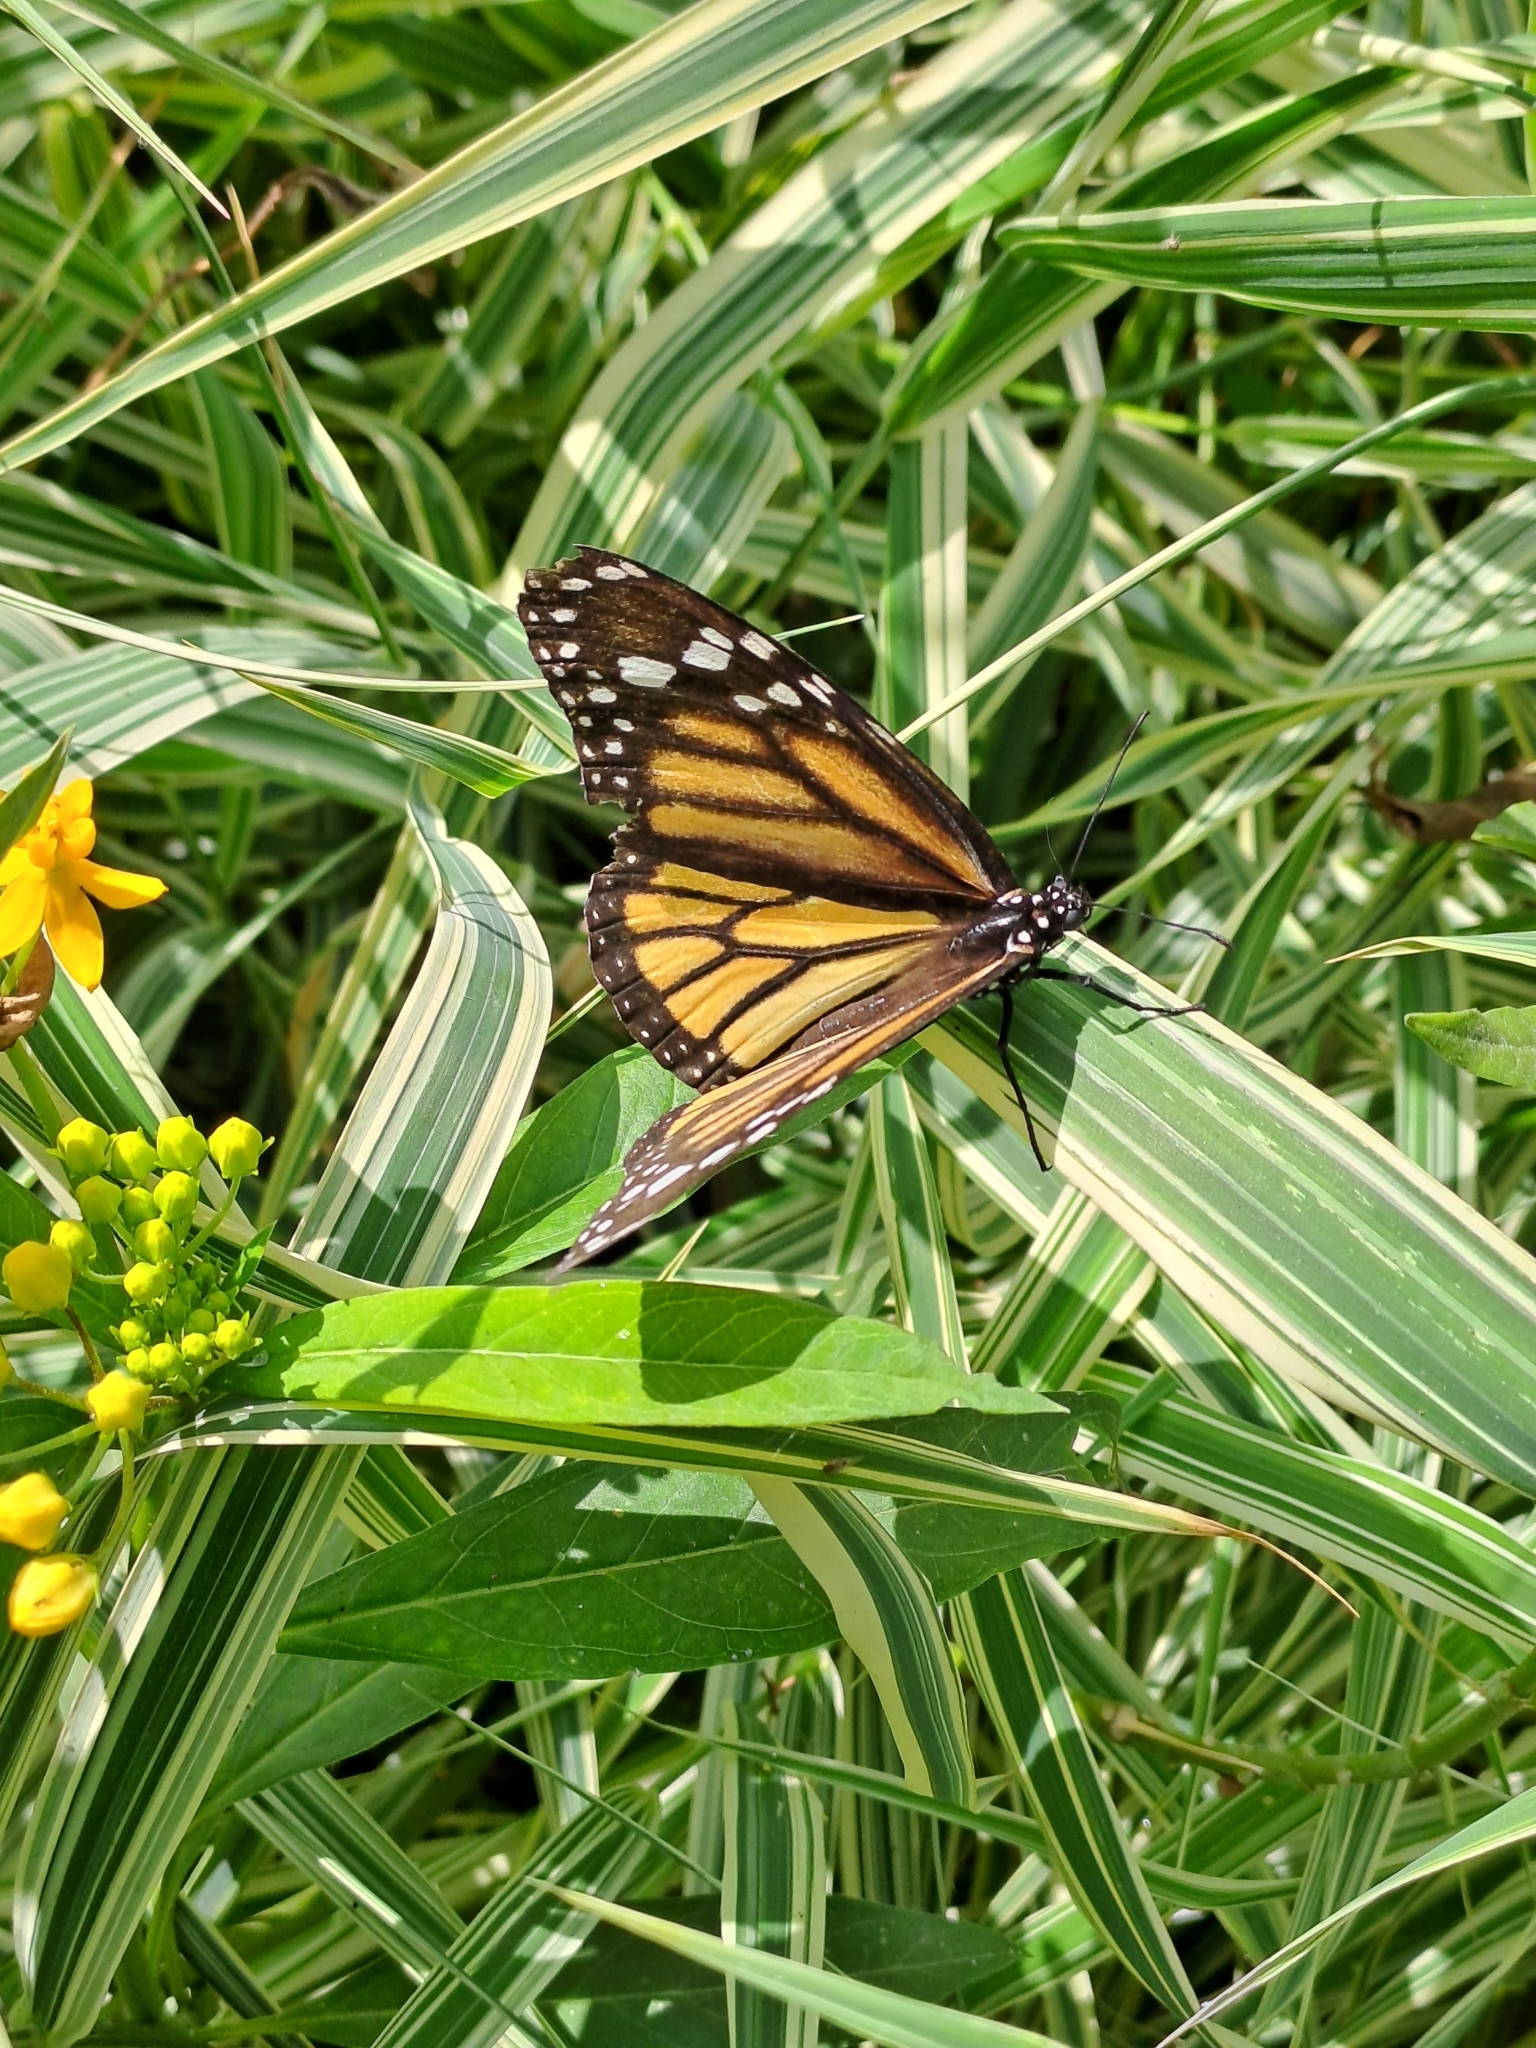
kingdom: Animalia
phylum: Arthropoda
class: Insecta
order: Lepidoptera
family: Nymphalidae
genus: Danaus
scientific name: Danaus plexippus
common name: Monarch
